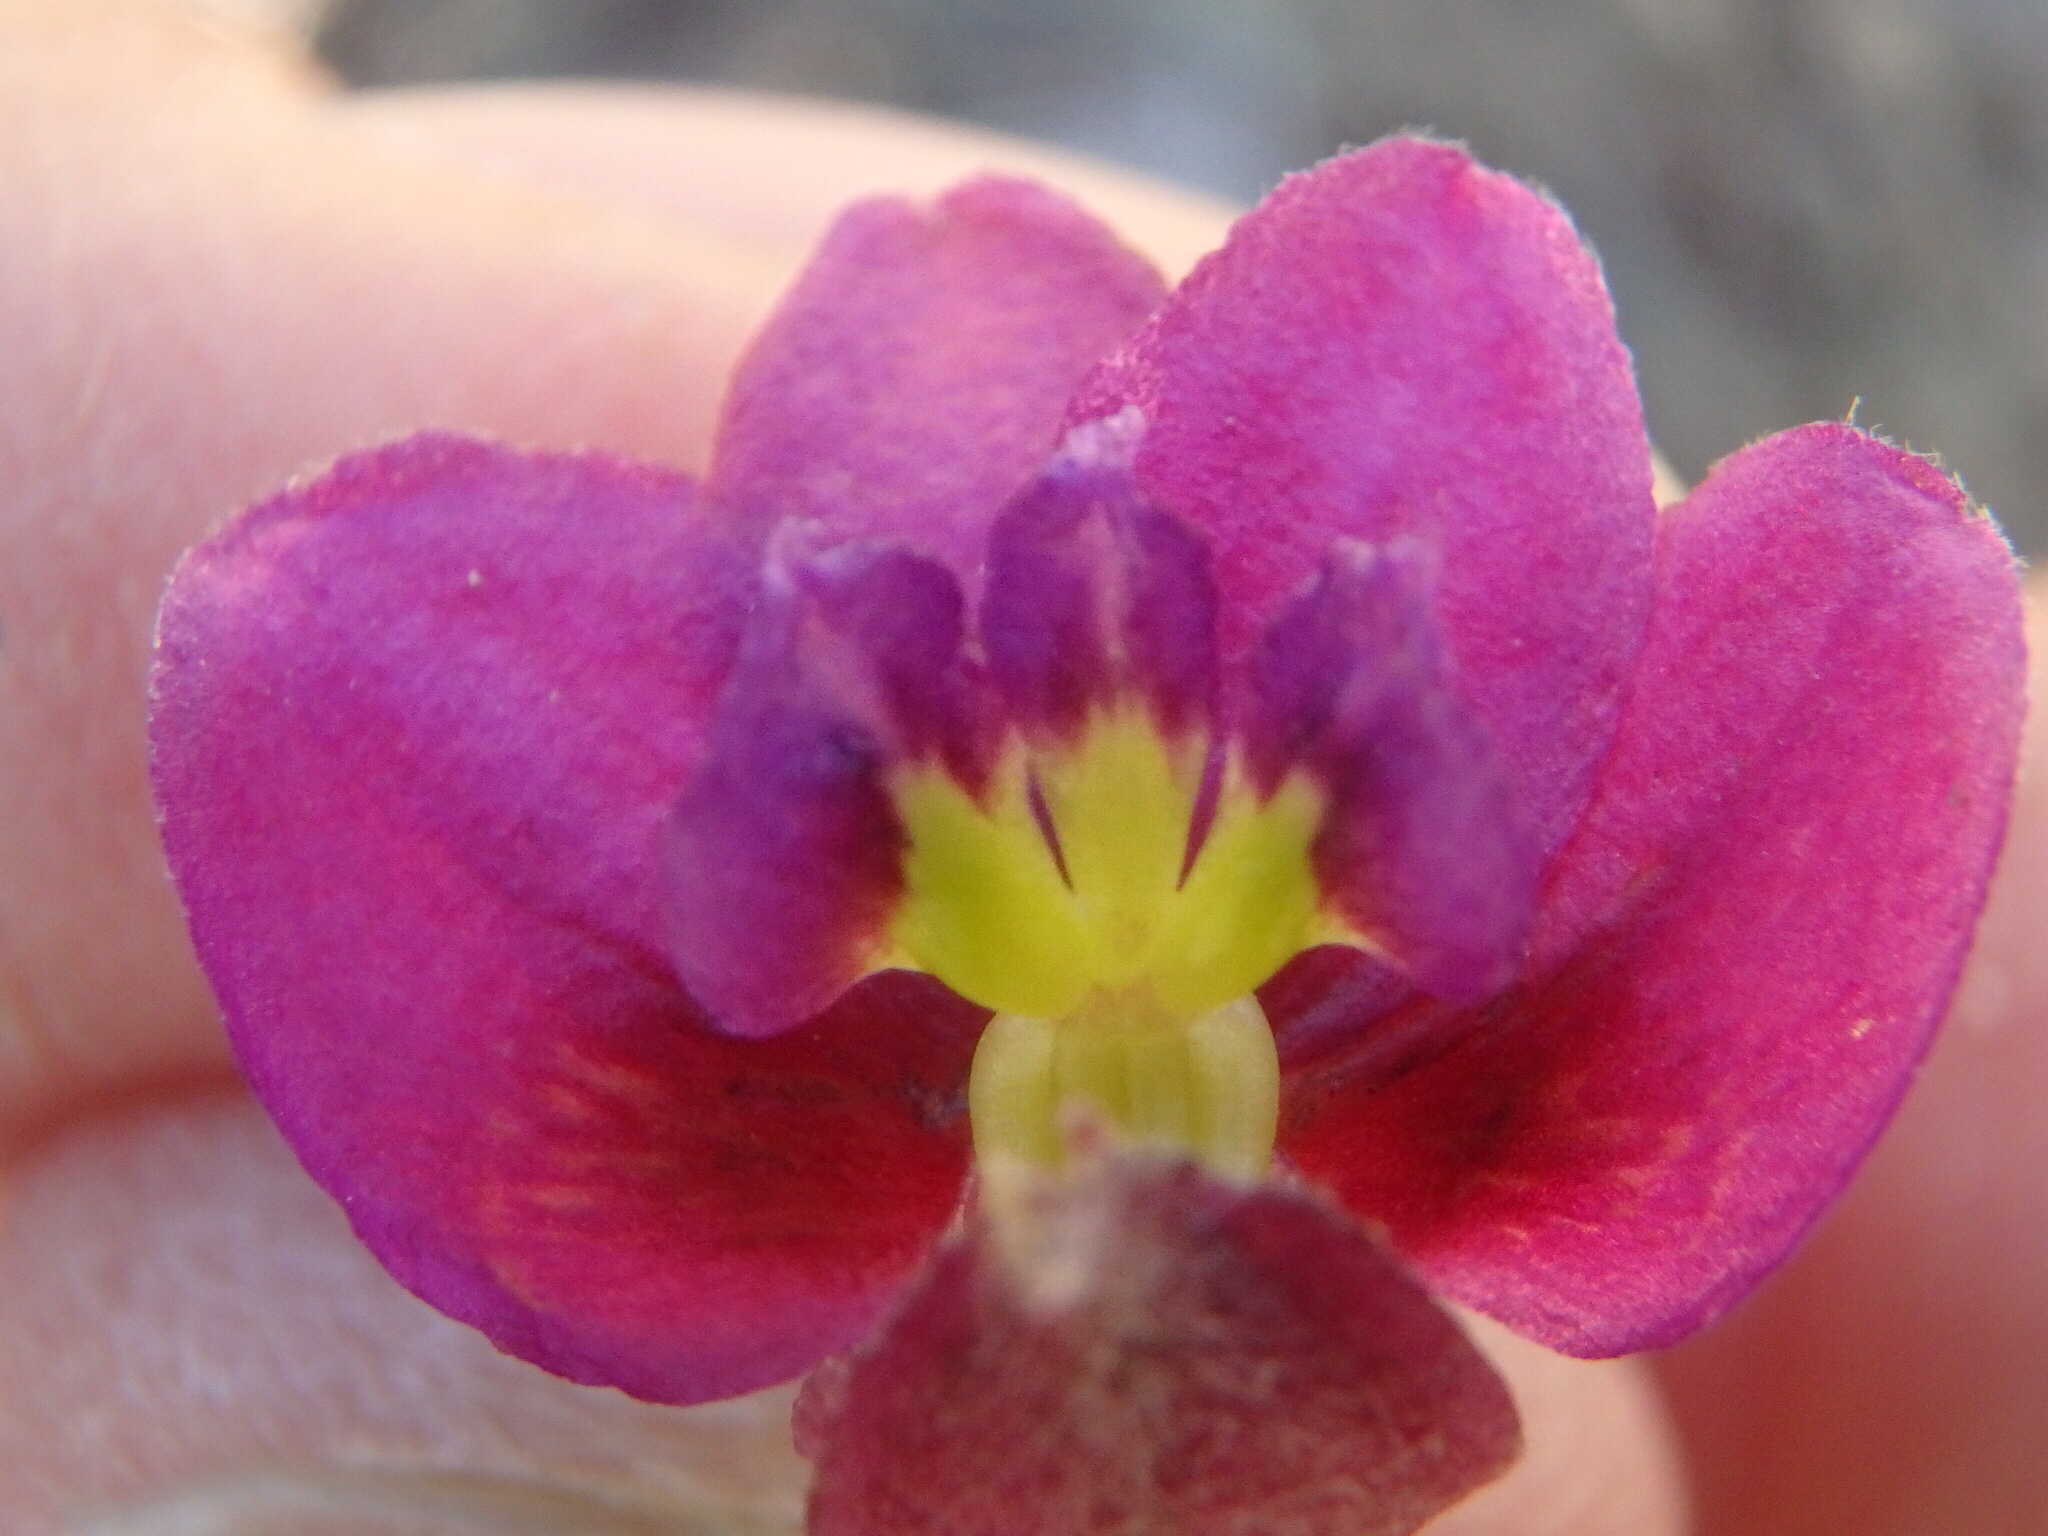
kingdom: Plantae
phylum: Tracheophyta
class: Magnoliopsida
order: Zygophyllales
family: Krameriaceae
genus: Krameria
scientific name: Krameria erecta
